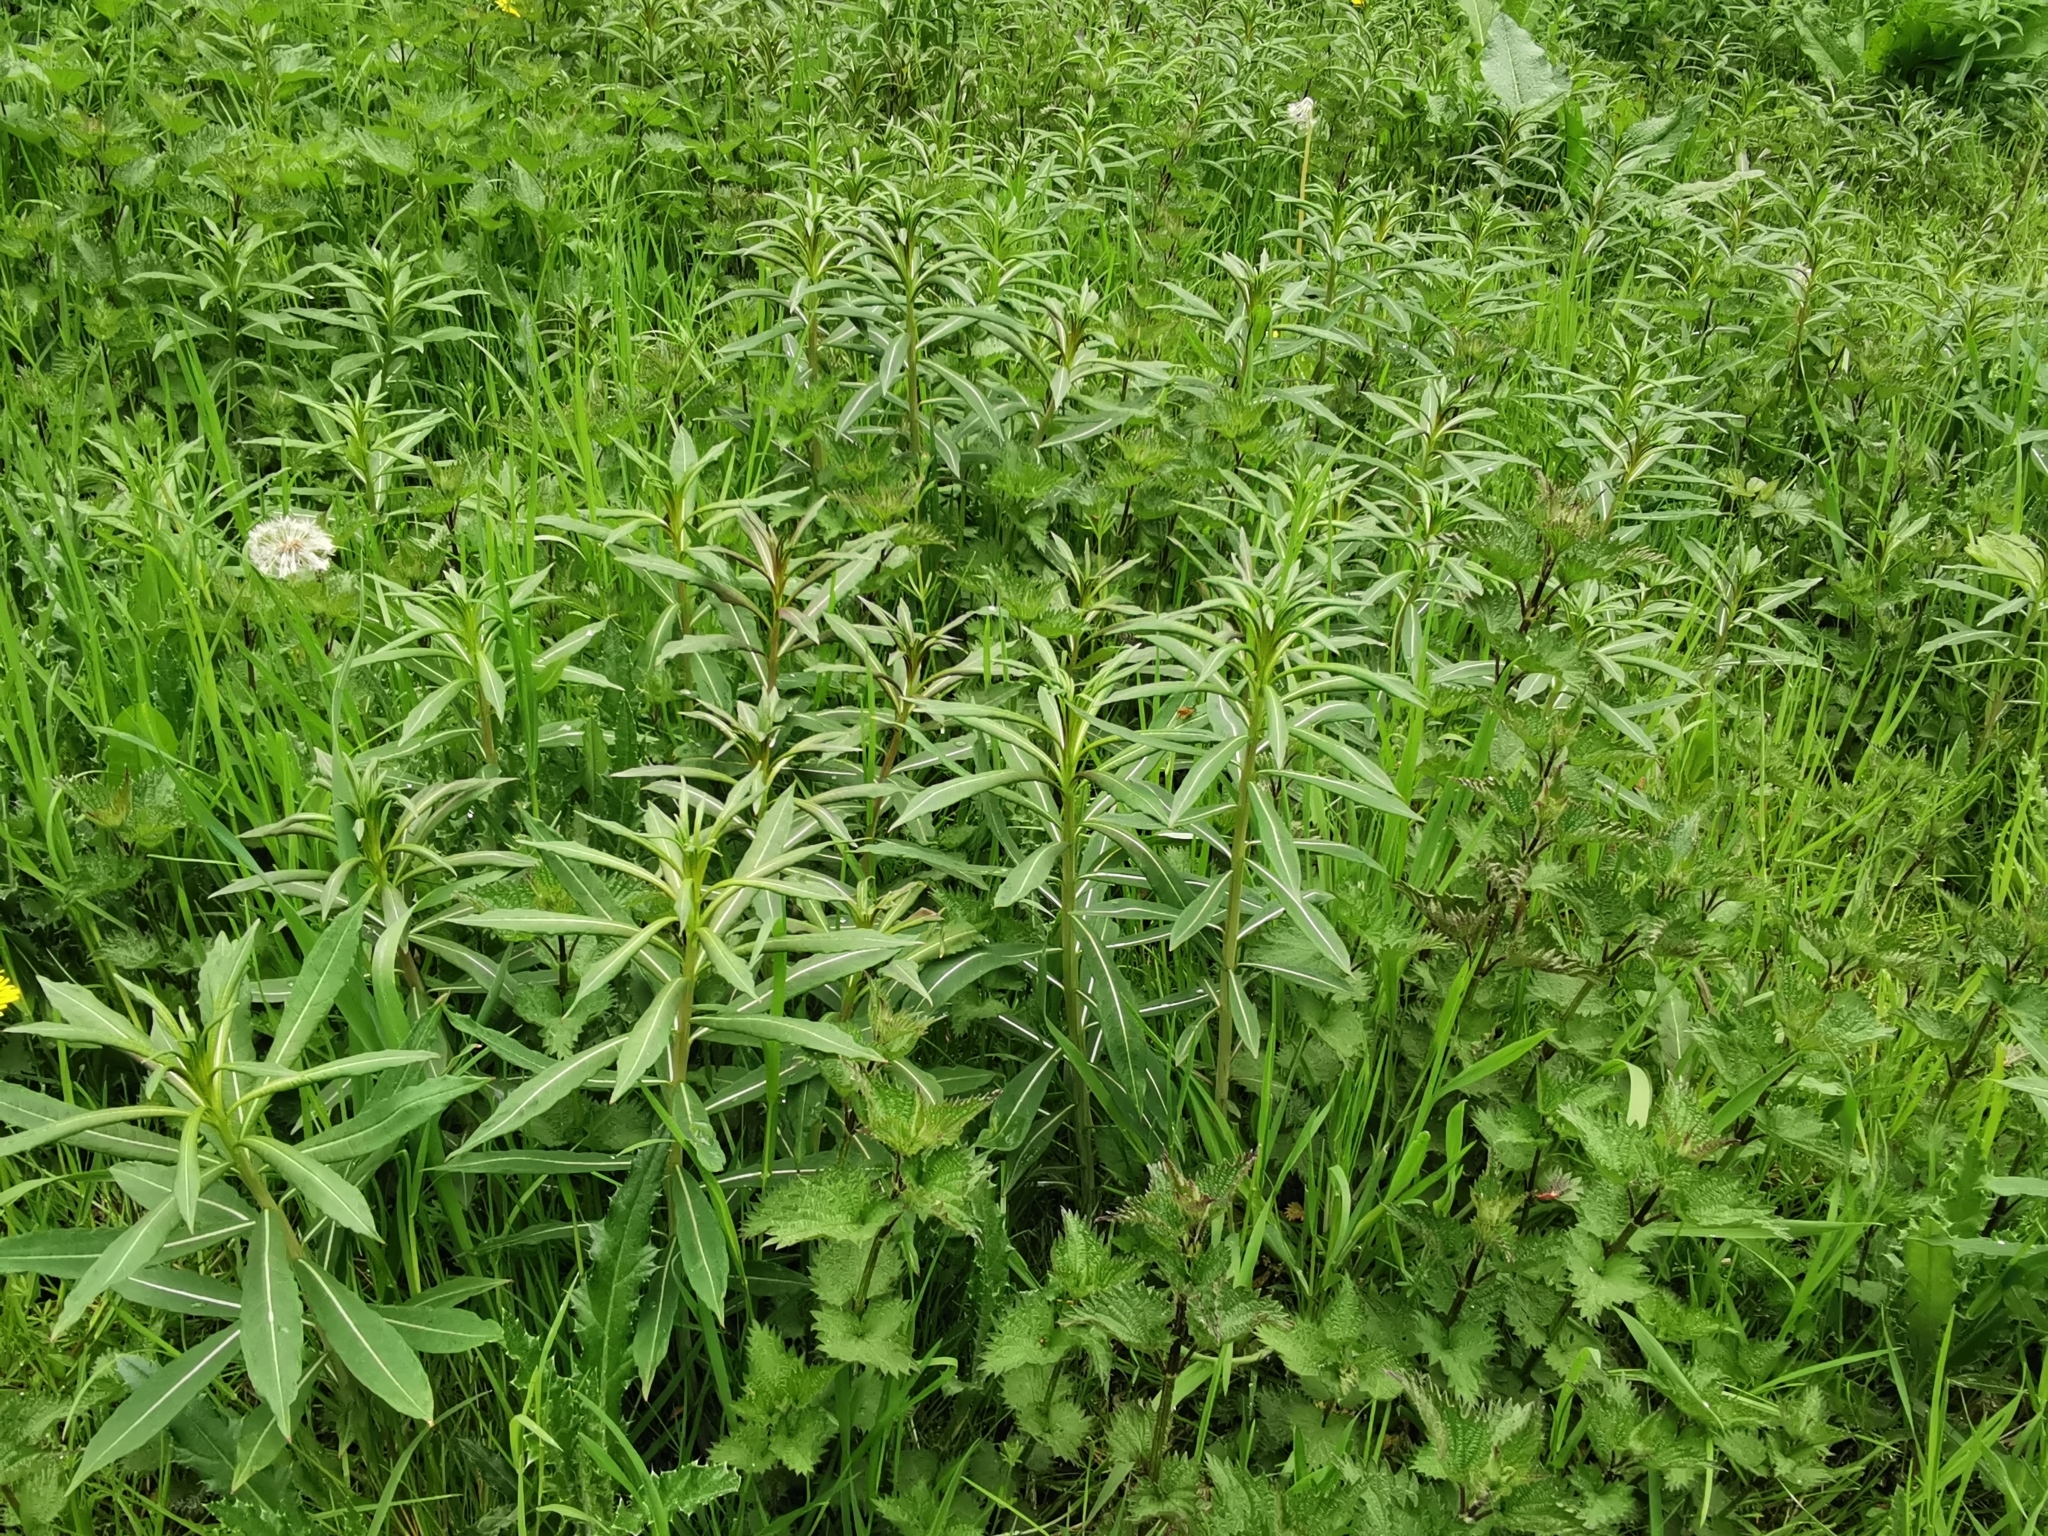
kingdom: Plantae
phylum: Tracheophyta
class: Magnoliopsida
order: Myrtales
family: Onagraceae
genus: Chamaenerion
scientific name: Chamaenerion angustifolium
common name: Fireweed
